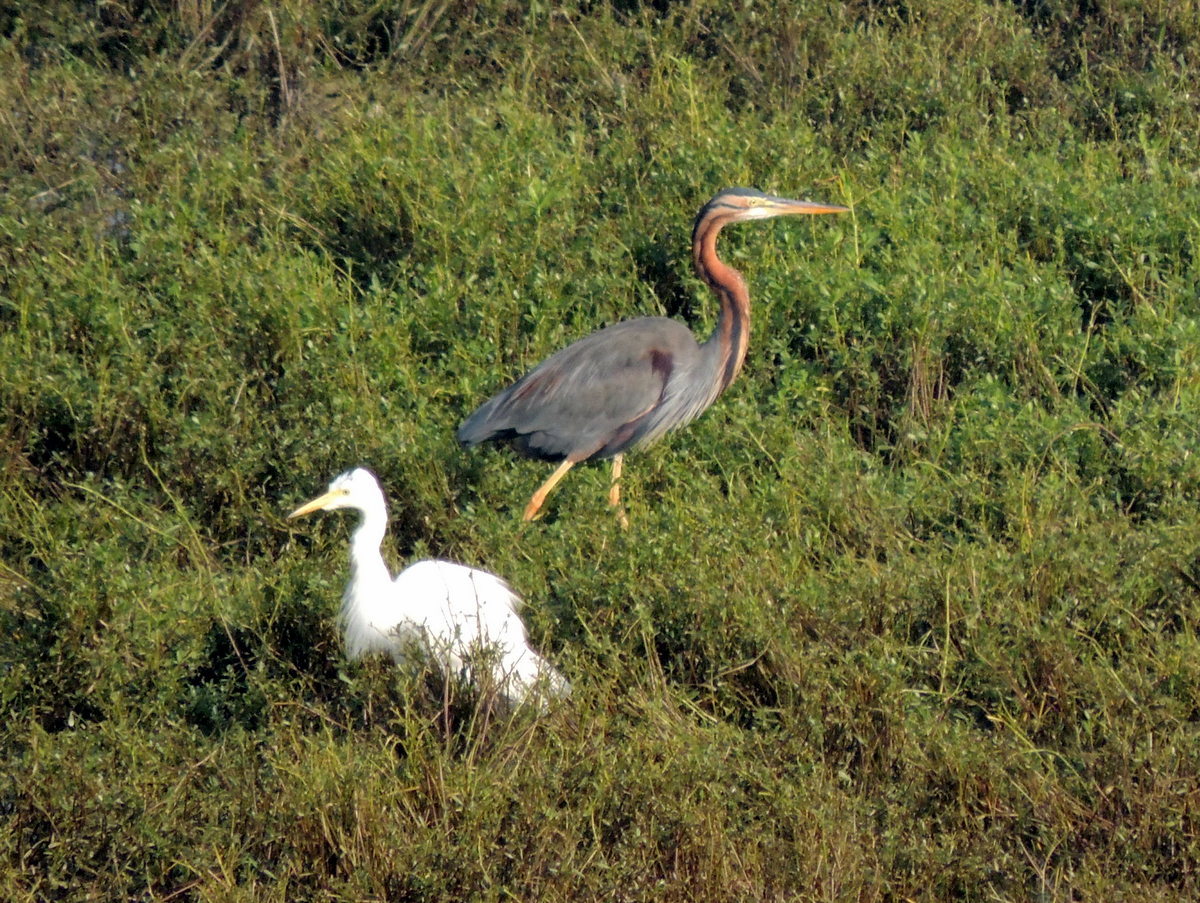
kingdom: Animalia
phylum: Chordata
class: Aves
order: Pelecaniformes
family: Ardeidae
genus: Ardea
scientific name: Ardea purpurea
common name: Purple heron
